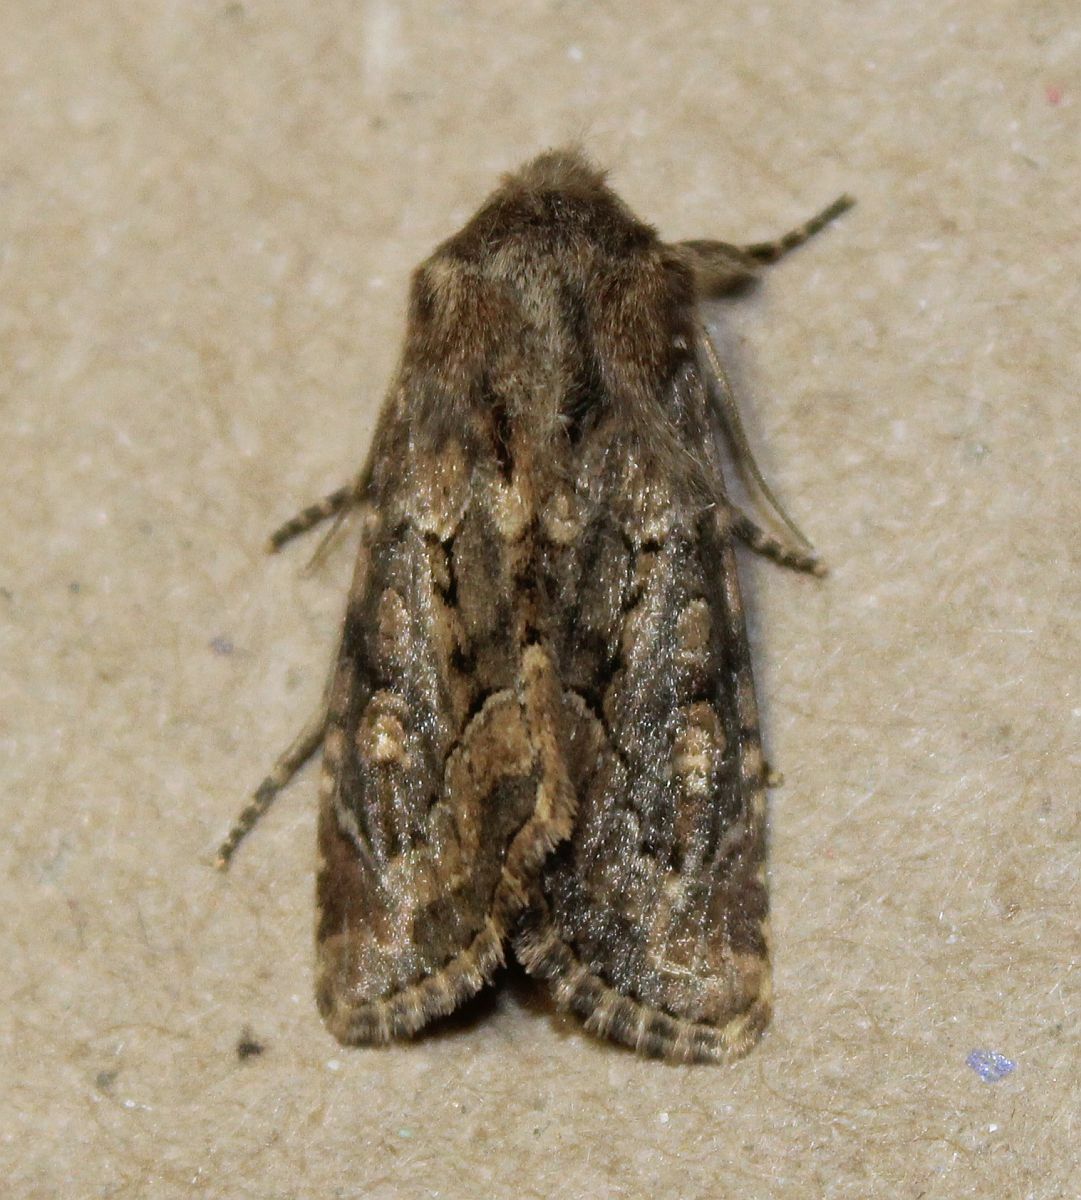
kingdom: Animalia
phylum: Arthropoda
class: Insecta
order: Lepidoptera
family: Noctuidae
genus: Luperina
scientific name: Luperina testacea
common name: Flounced rustic
